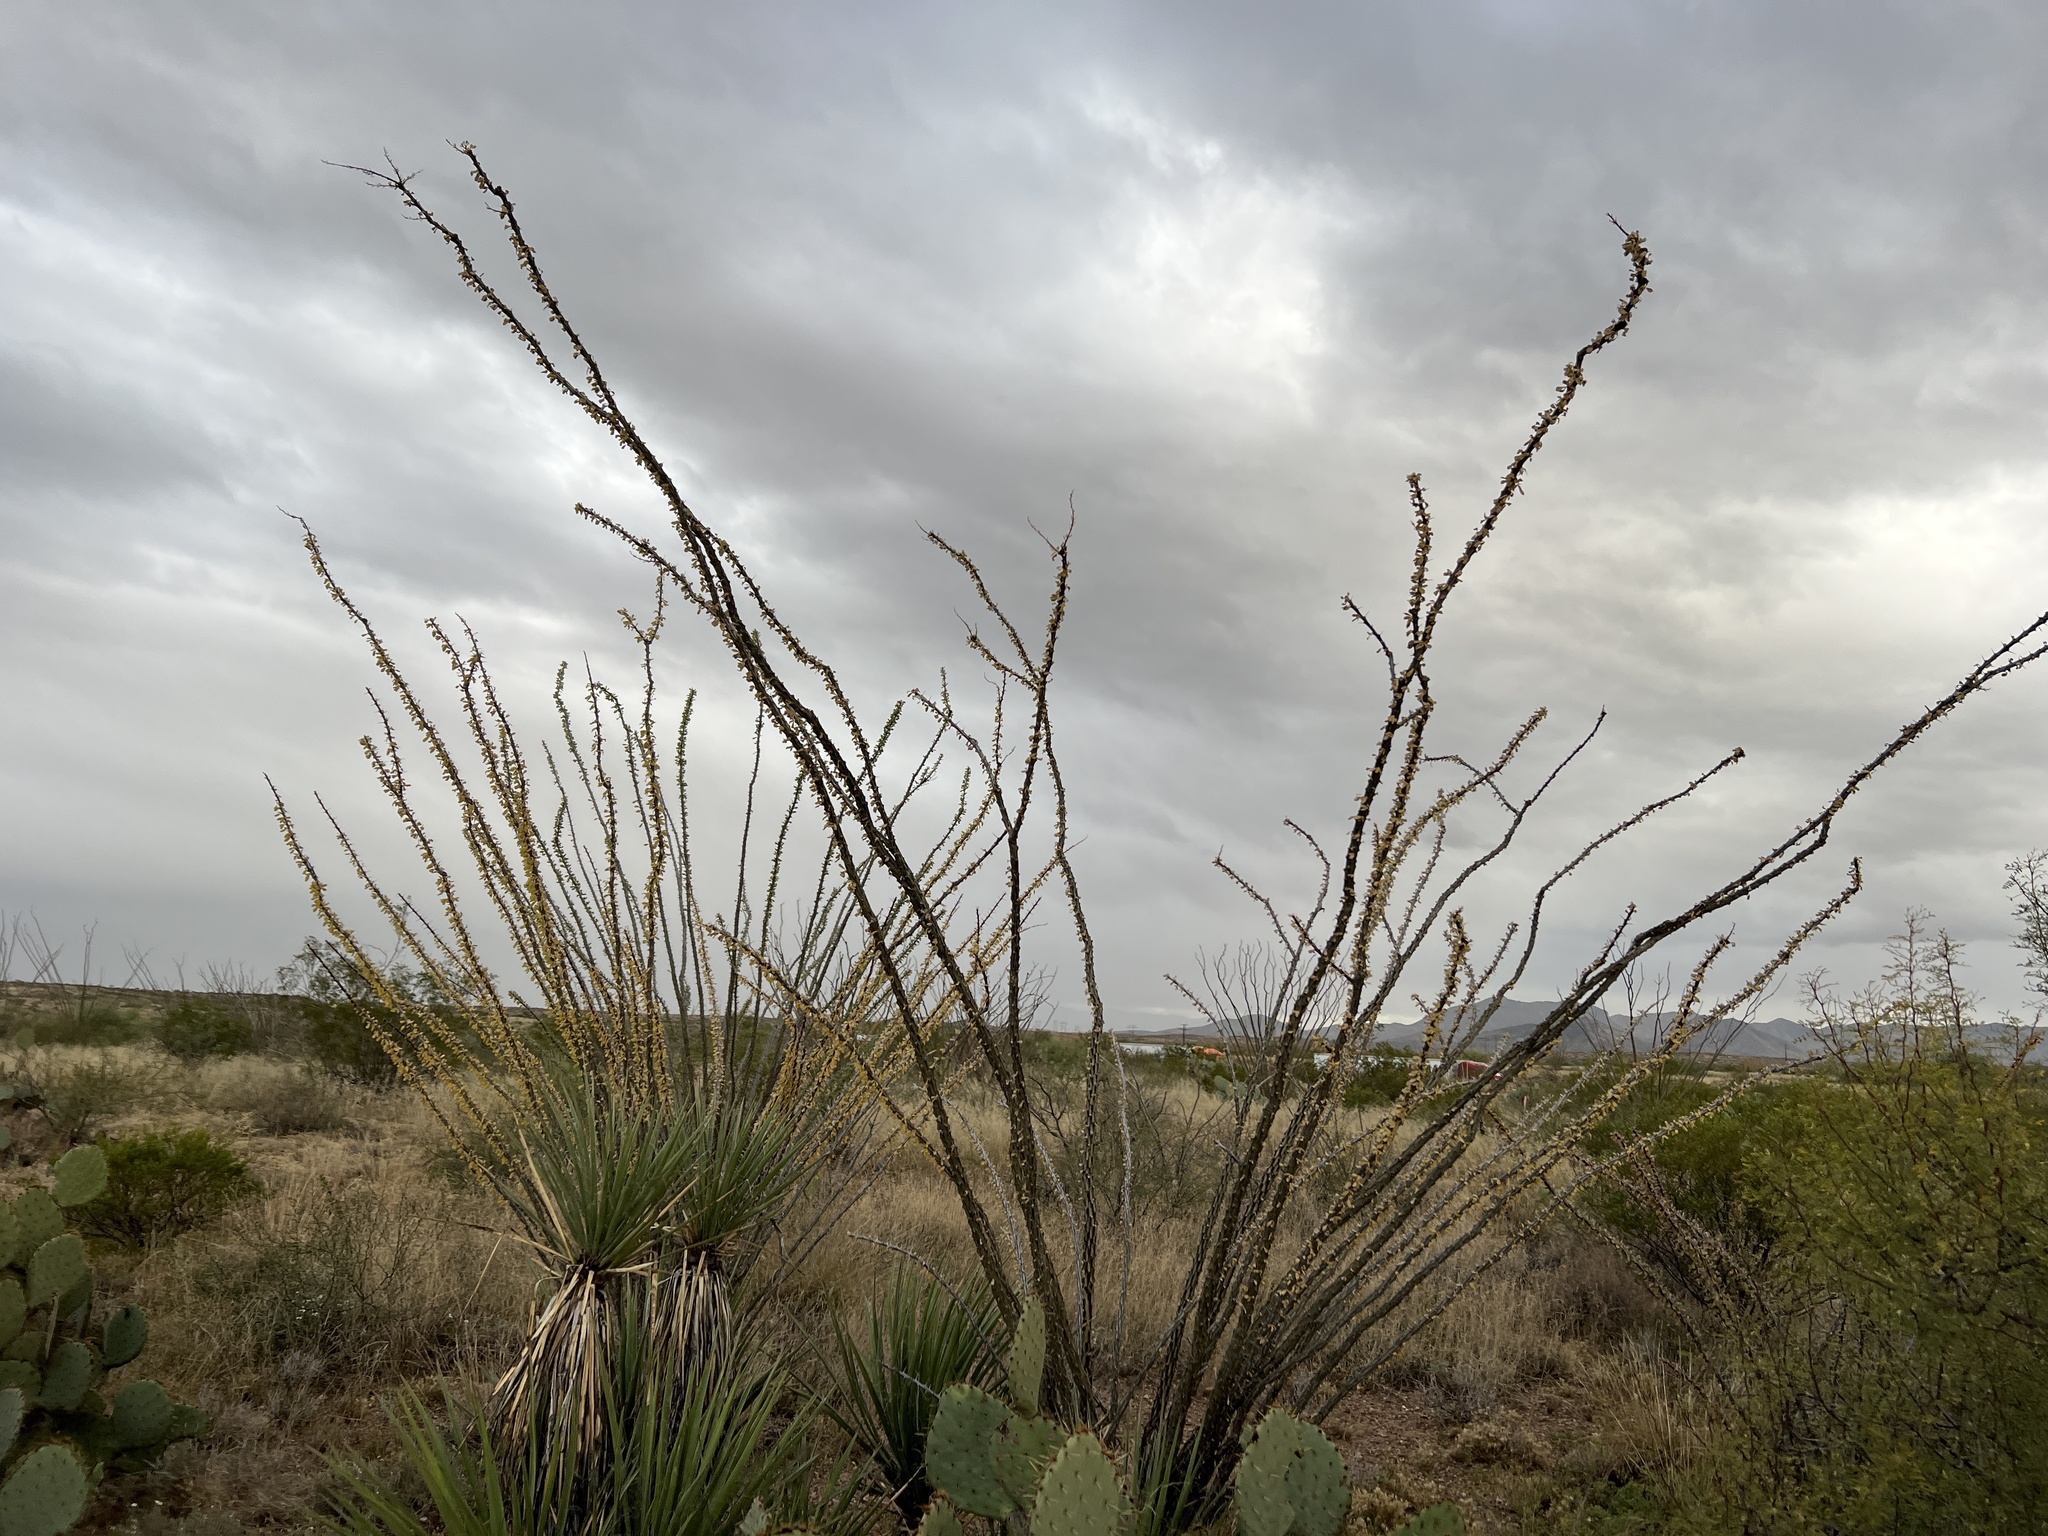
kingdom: Plantae
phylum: Tracheophyta
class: Magnoliopsida
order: Ericales
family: Fouquieriaceae
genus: Fouquieria
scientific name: Fouquieria splendens
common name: Vine-cactus
